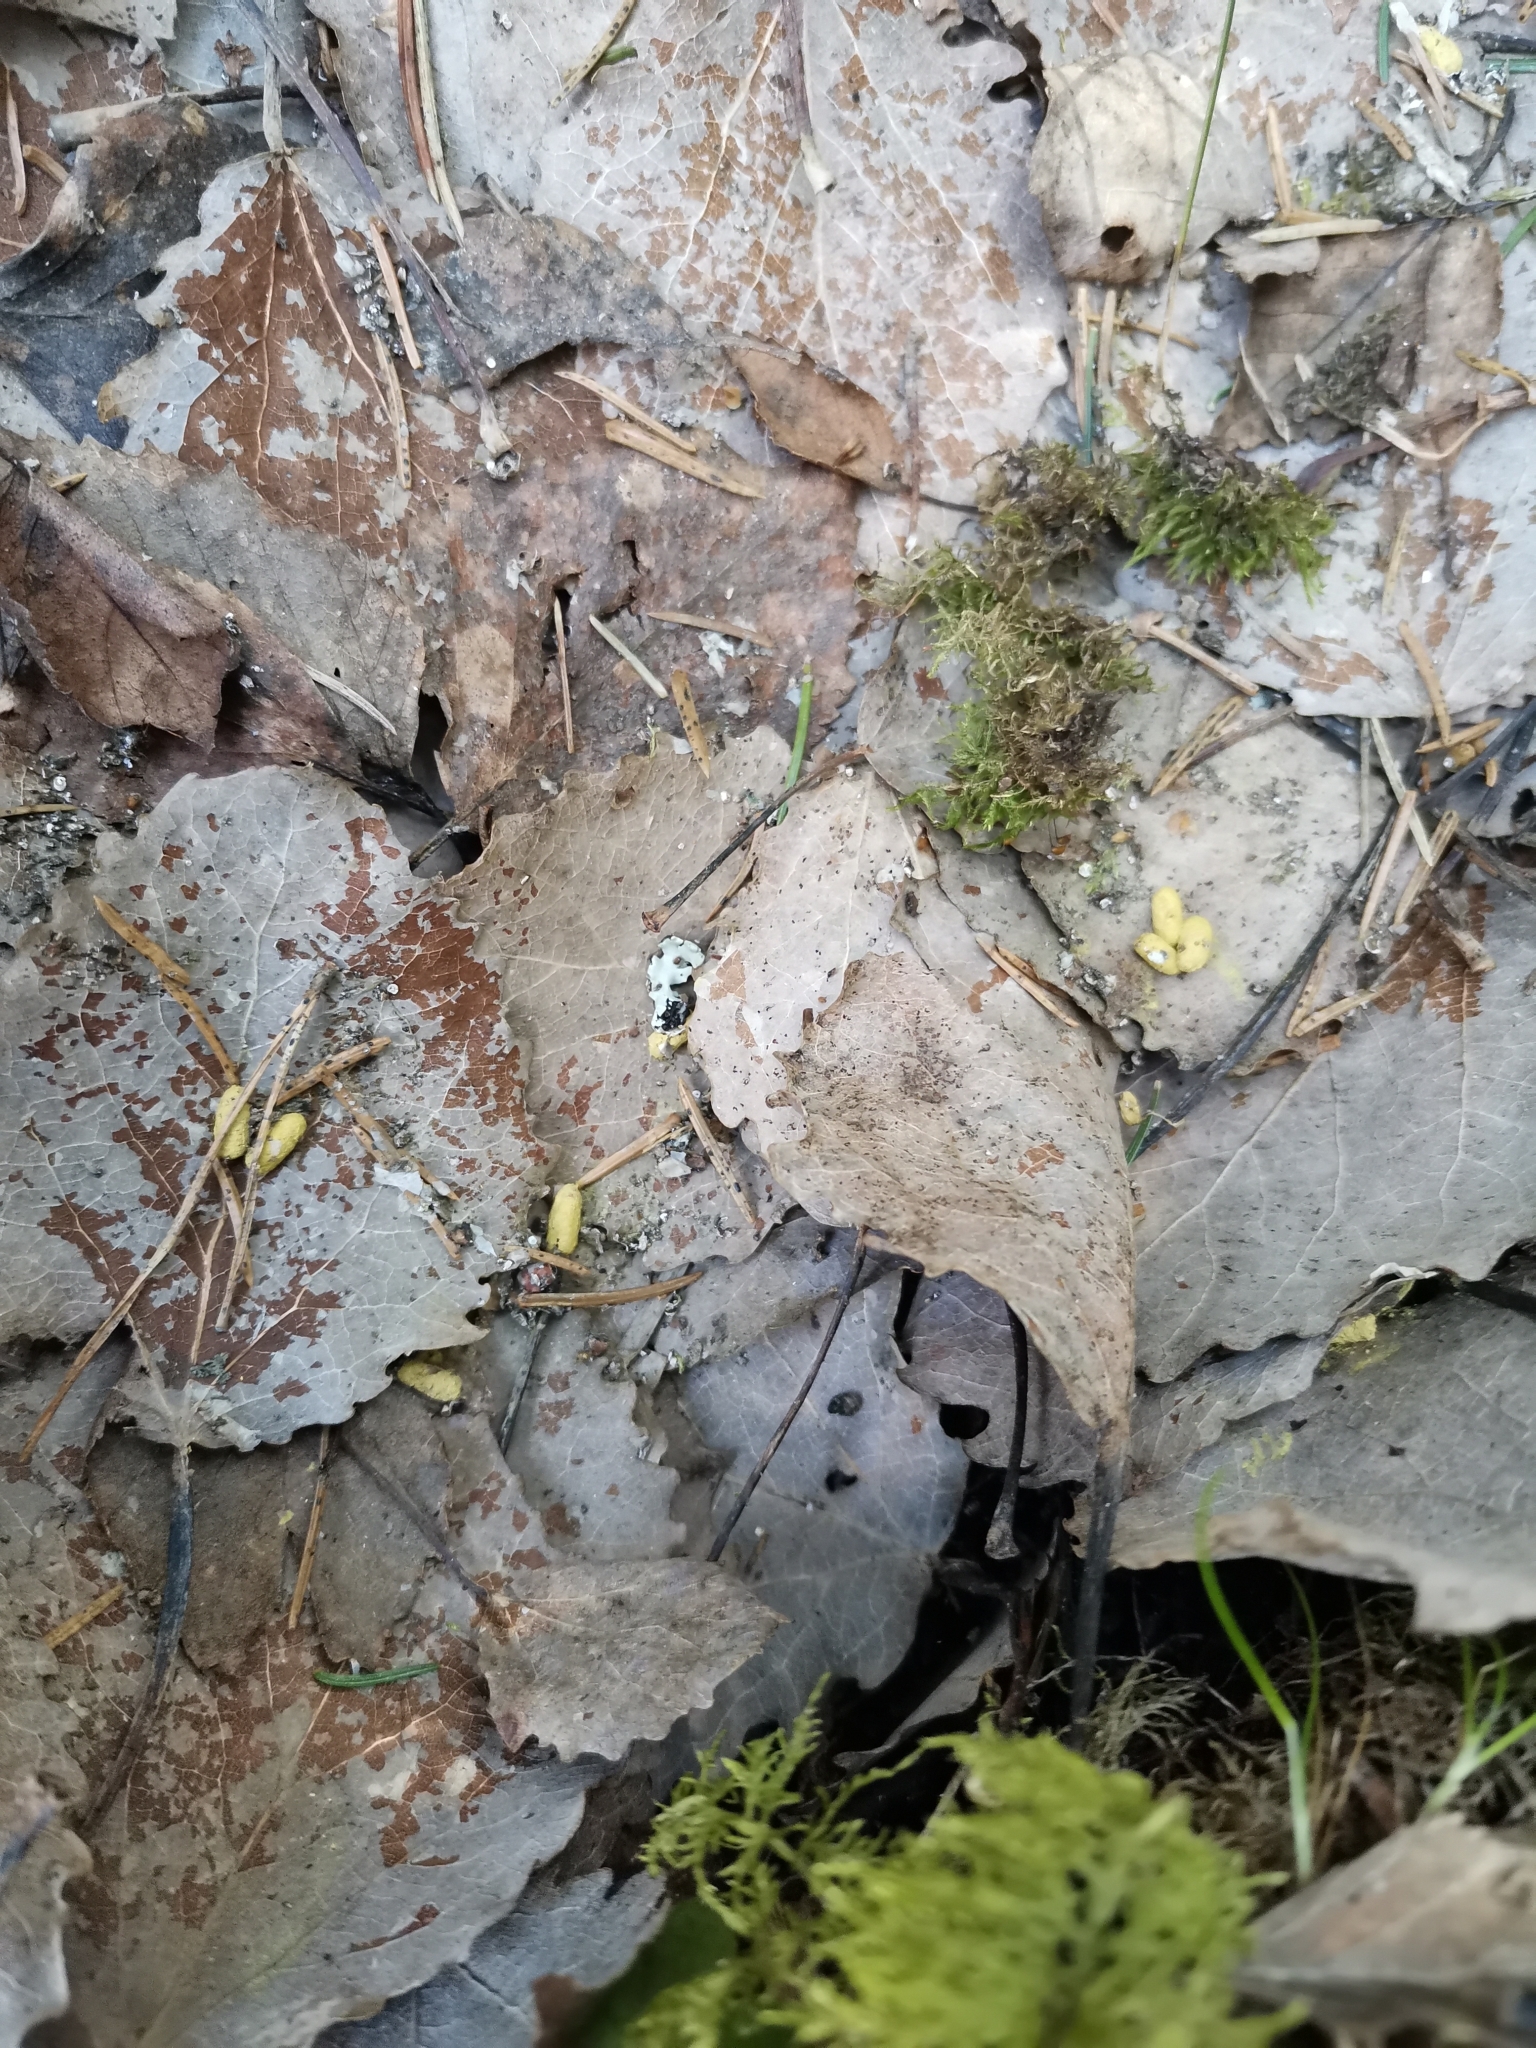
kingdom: Animalia
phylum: Chordata
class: Mammalia
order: Rodentia
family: Sciuridae
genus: Pteromys
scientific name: Pteromys volans
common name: Siberian flying squirrel
